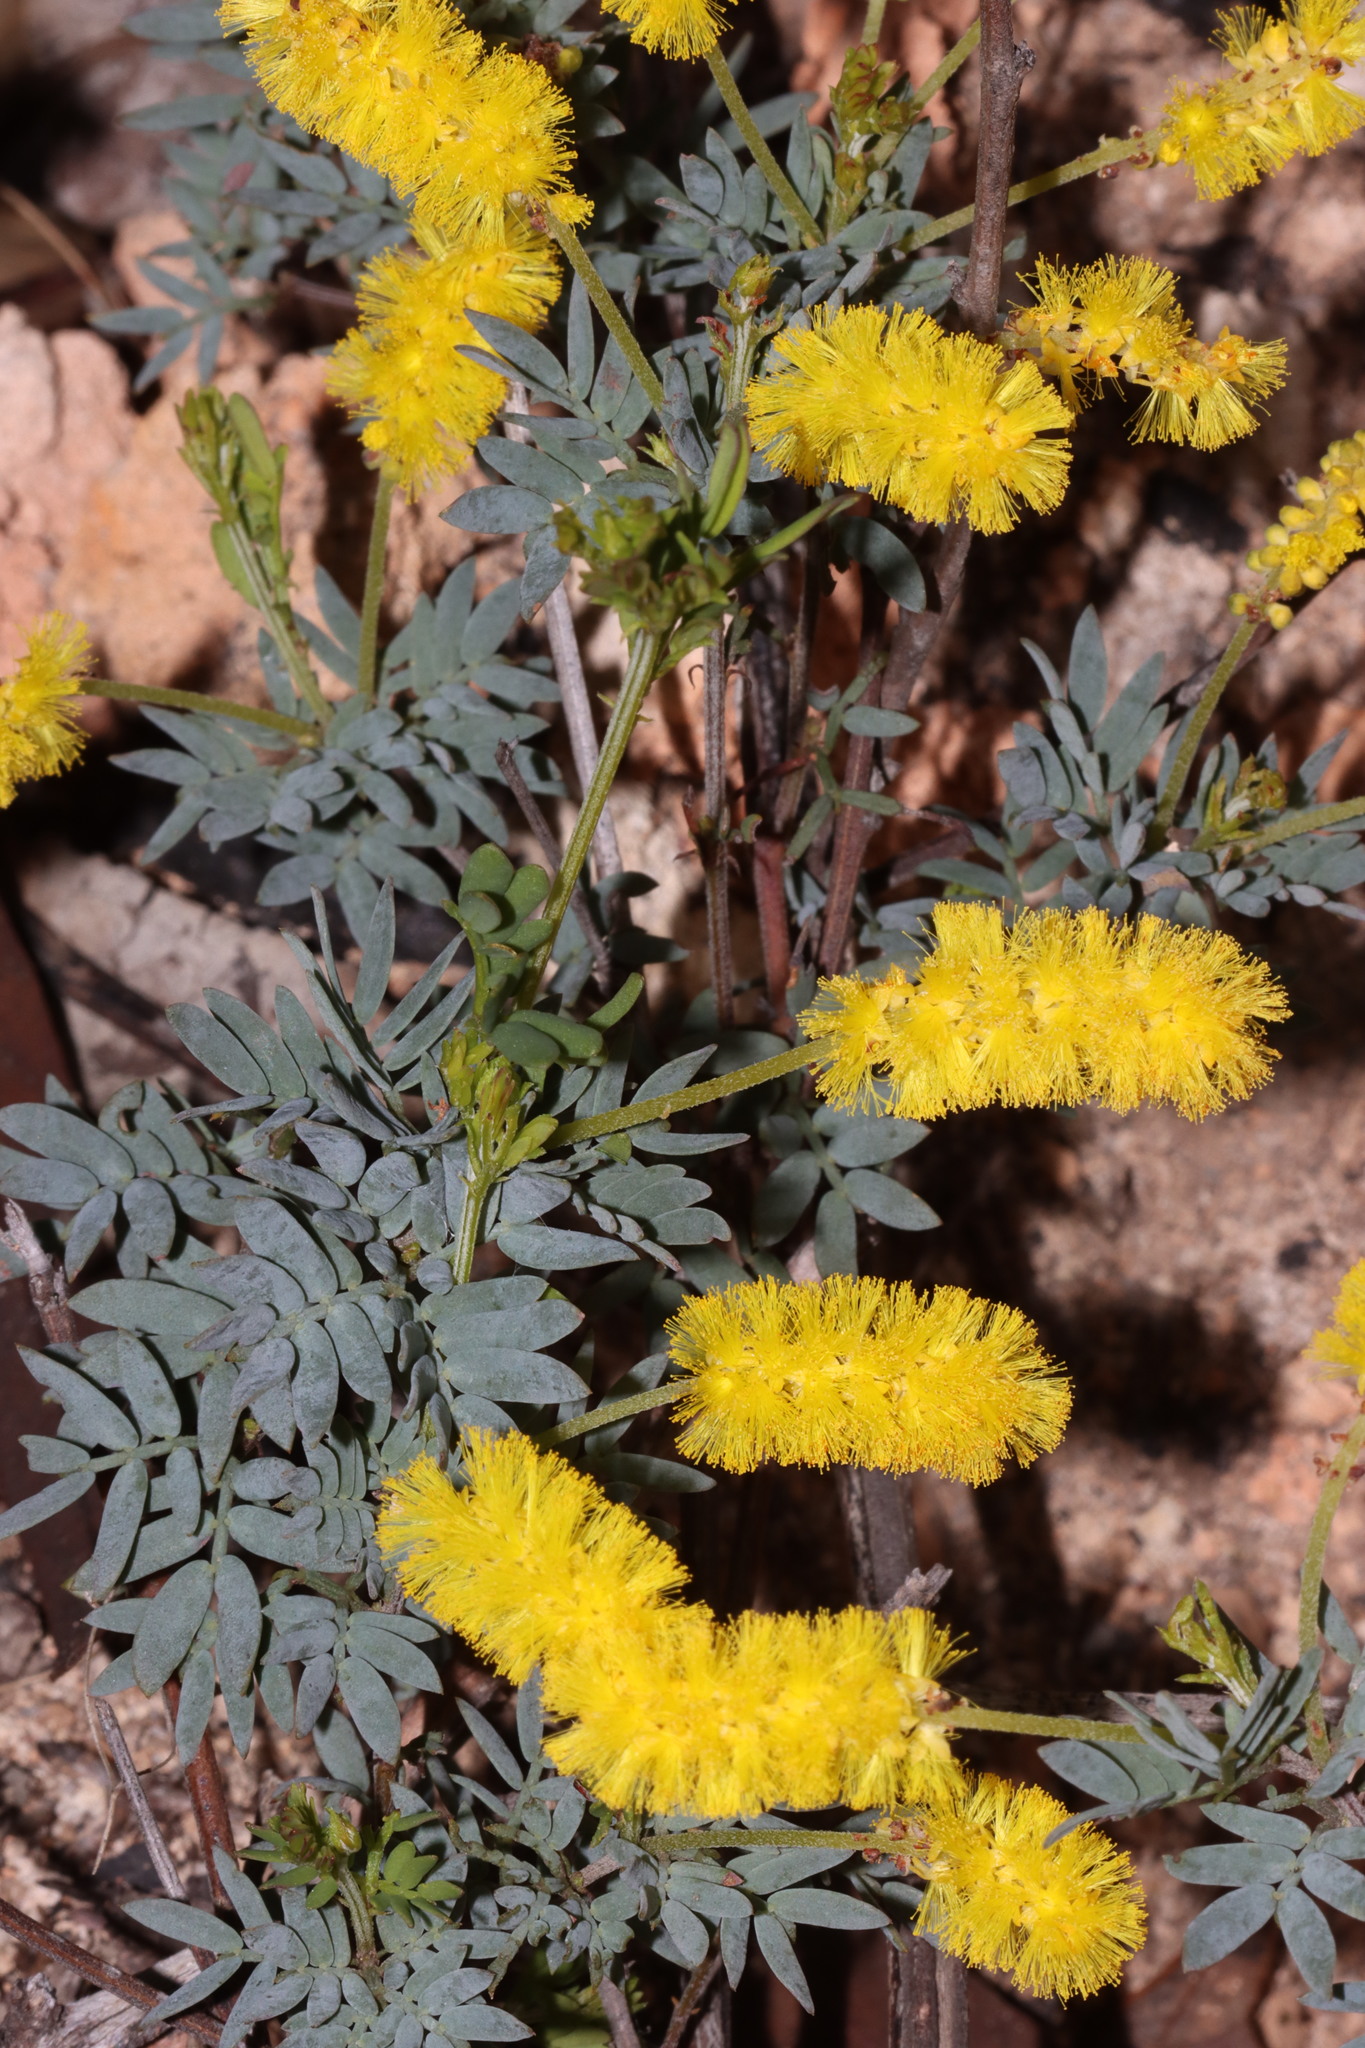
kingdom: Plantae
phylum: Tracheophyta
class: Magnoliopsida
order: Fabales
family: Fabaceae
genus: Acacia
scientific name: Acacia drummondii
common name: Drummond's wattle
